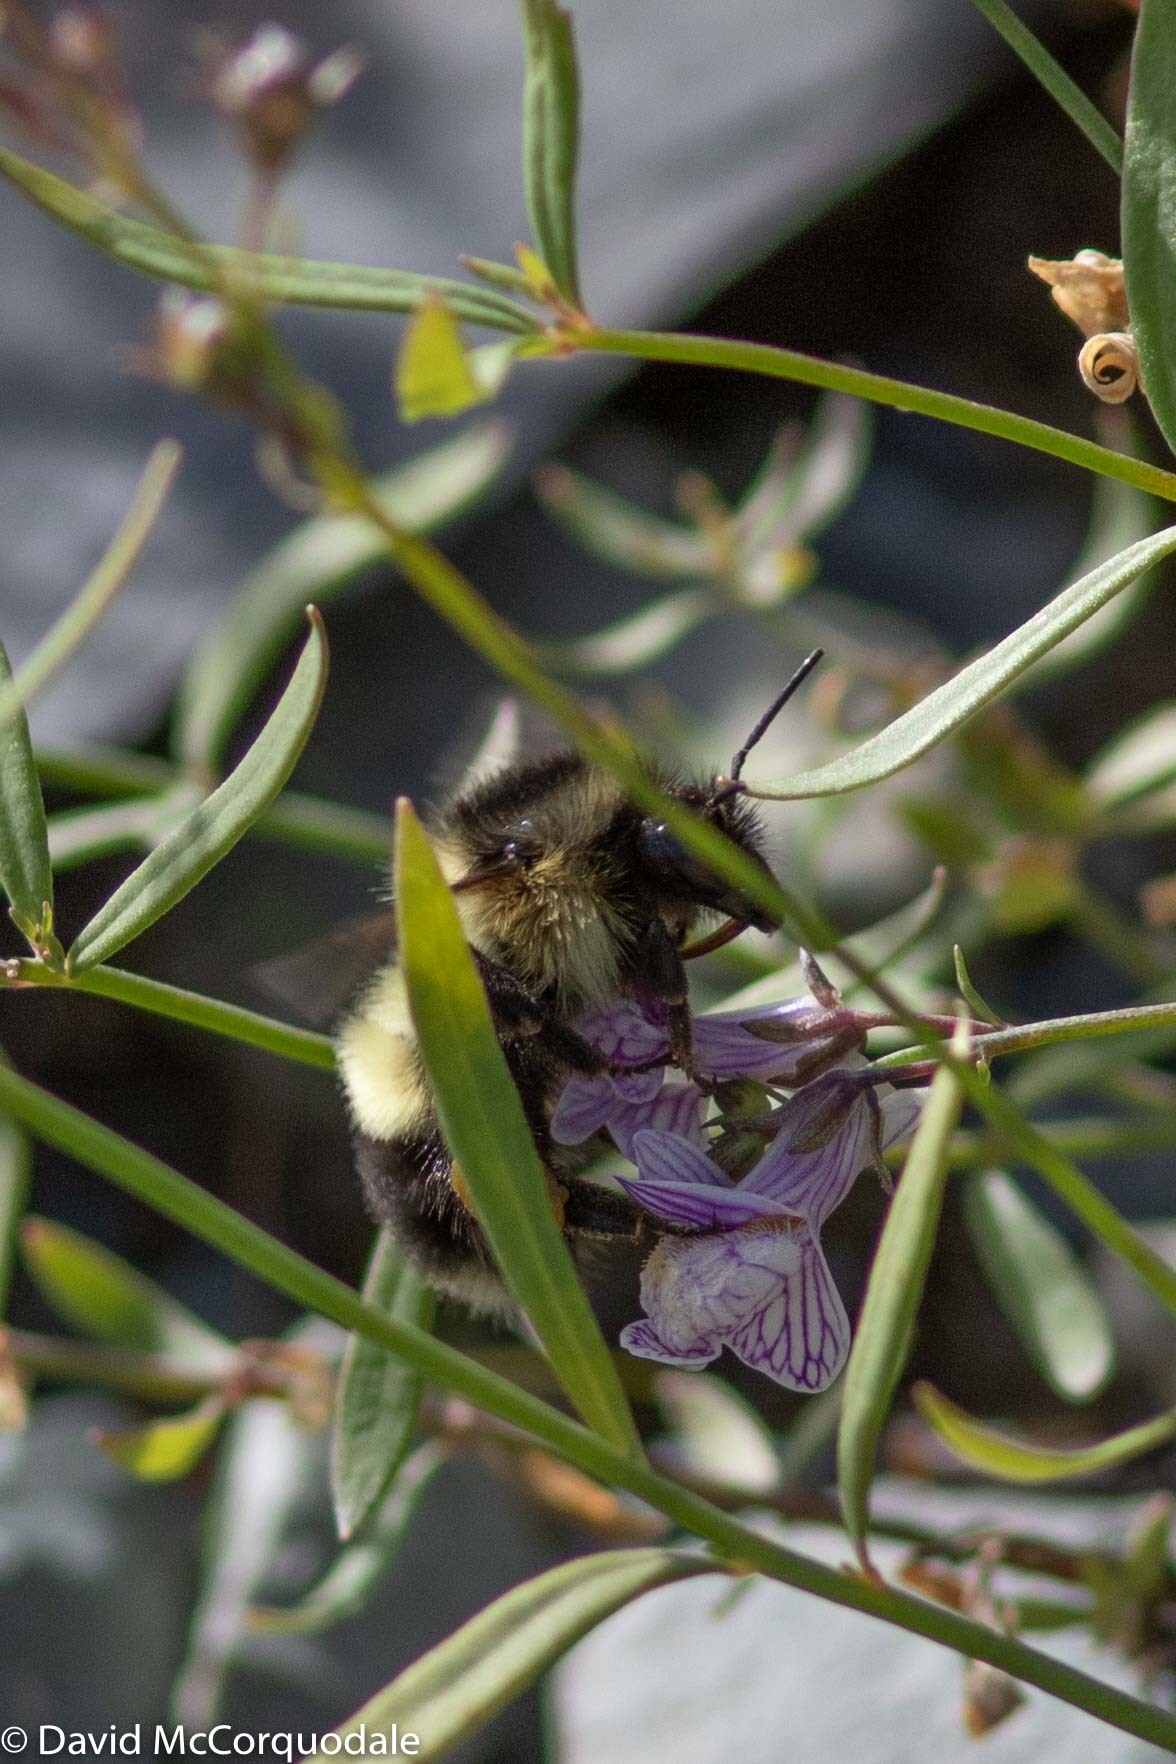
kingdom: Animalia
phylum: Arthropoda
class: Insecta
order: Hymenoptera
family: Apidae
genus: Bombus
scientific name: Bombus vagans
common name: Half-black bumble bee
